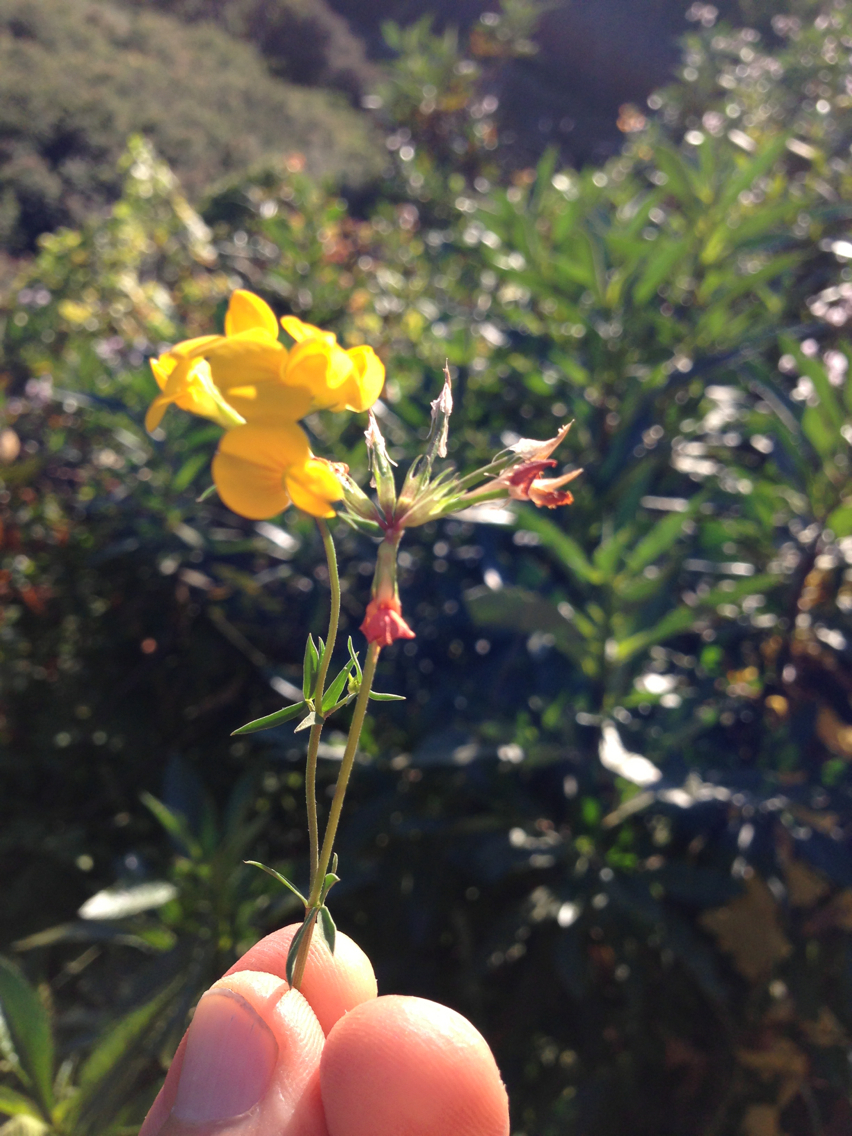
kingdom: Plantae
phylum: Tracheophyta
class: Magnoliopsida
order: Fabales
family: Fabaceae
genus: Lotus
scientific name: Lotus corniculatus
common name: Common bird's-foot-trefoil
